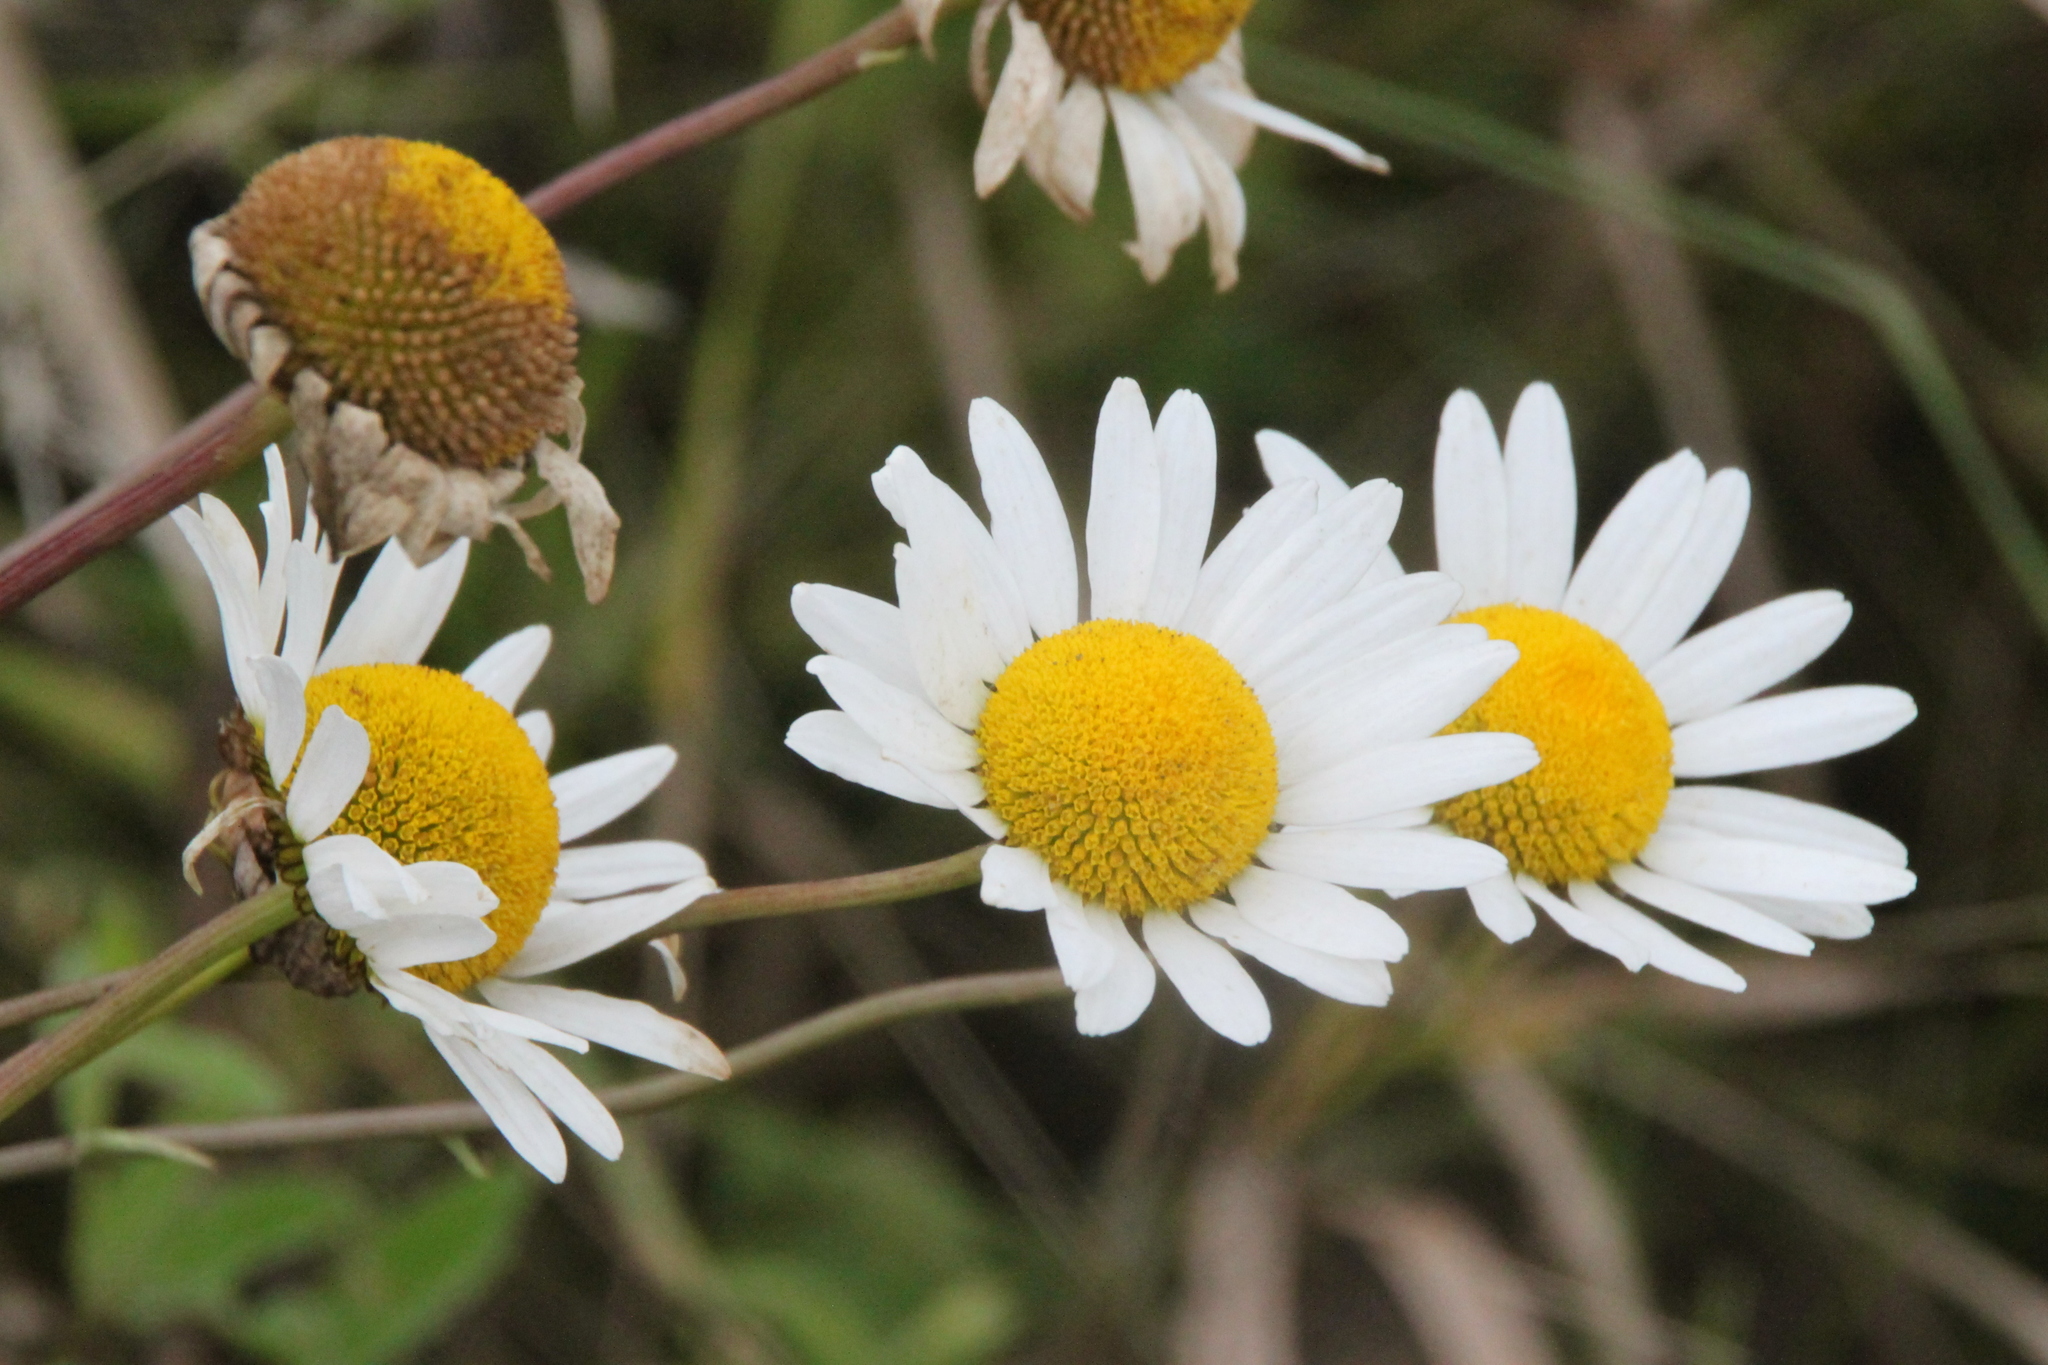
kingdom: Plantae
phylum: Tracheophyta
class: Magnoliopsida
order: Asterales
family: Asteraceae
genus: Leucanthemum
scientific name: Leucanthemum vulgare
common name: Oxeye daisy
